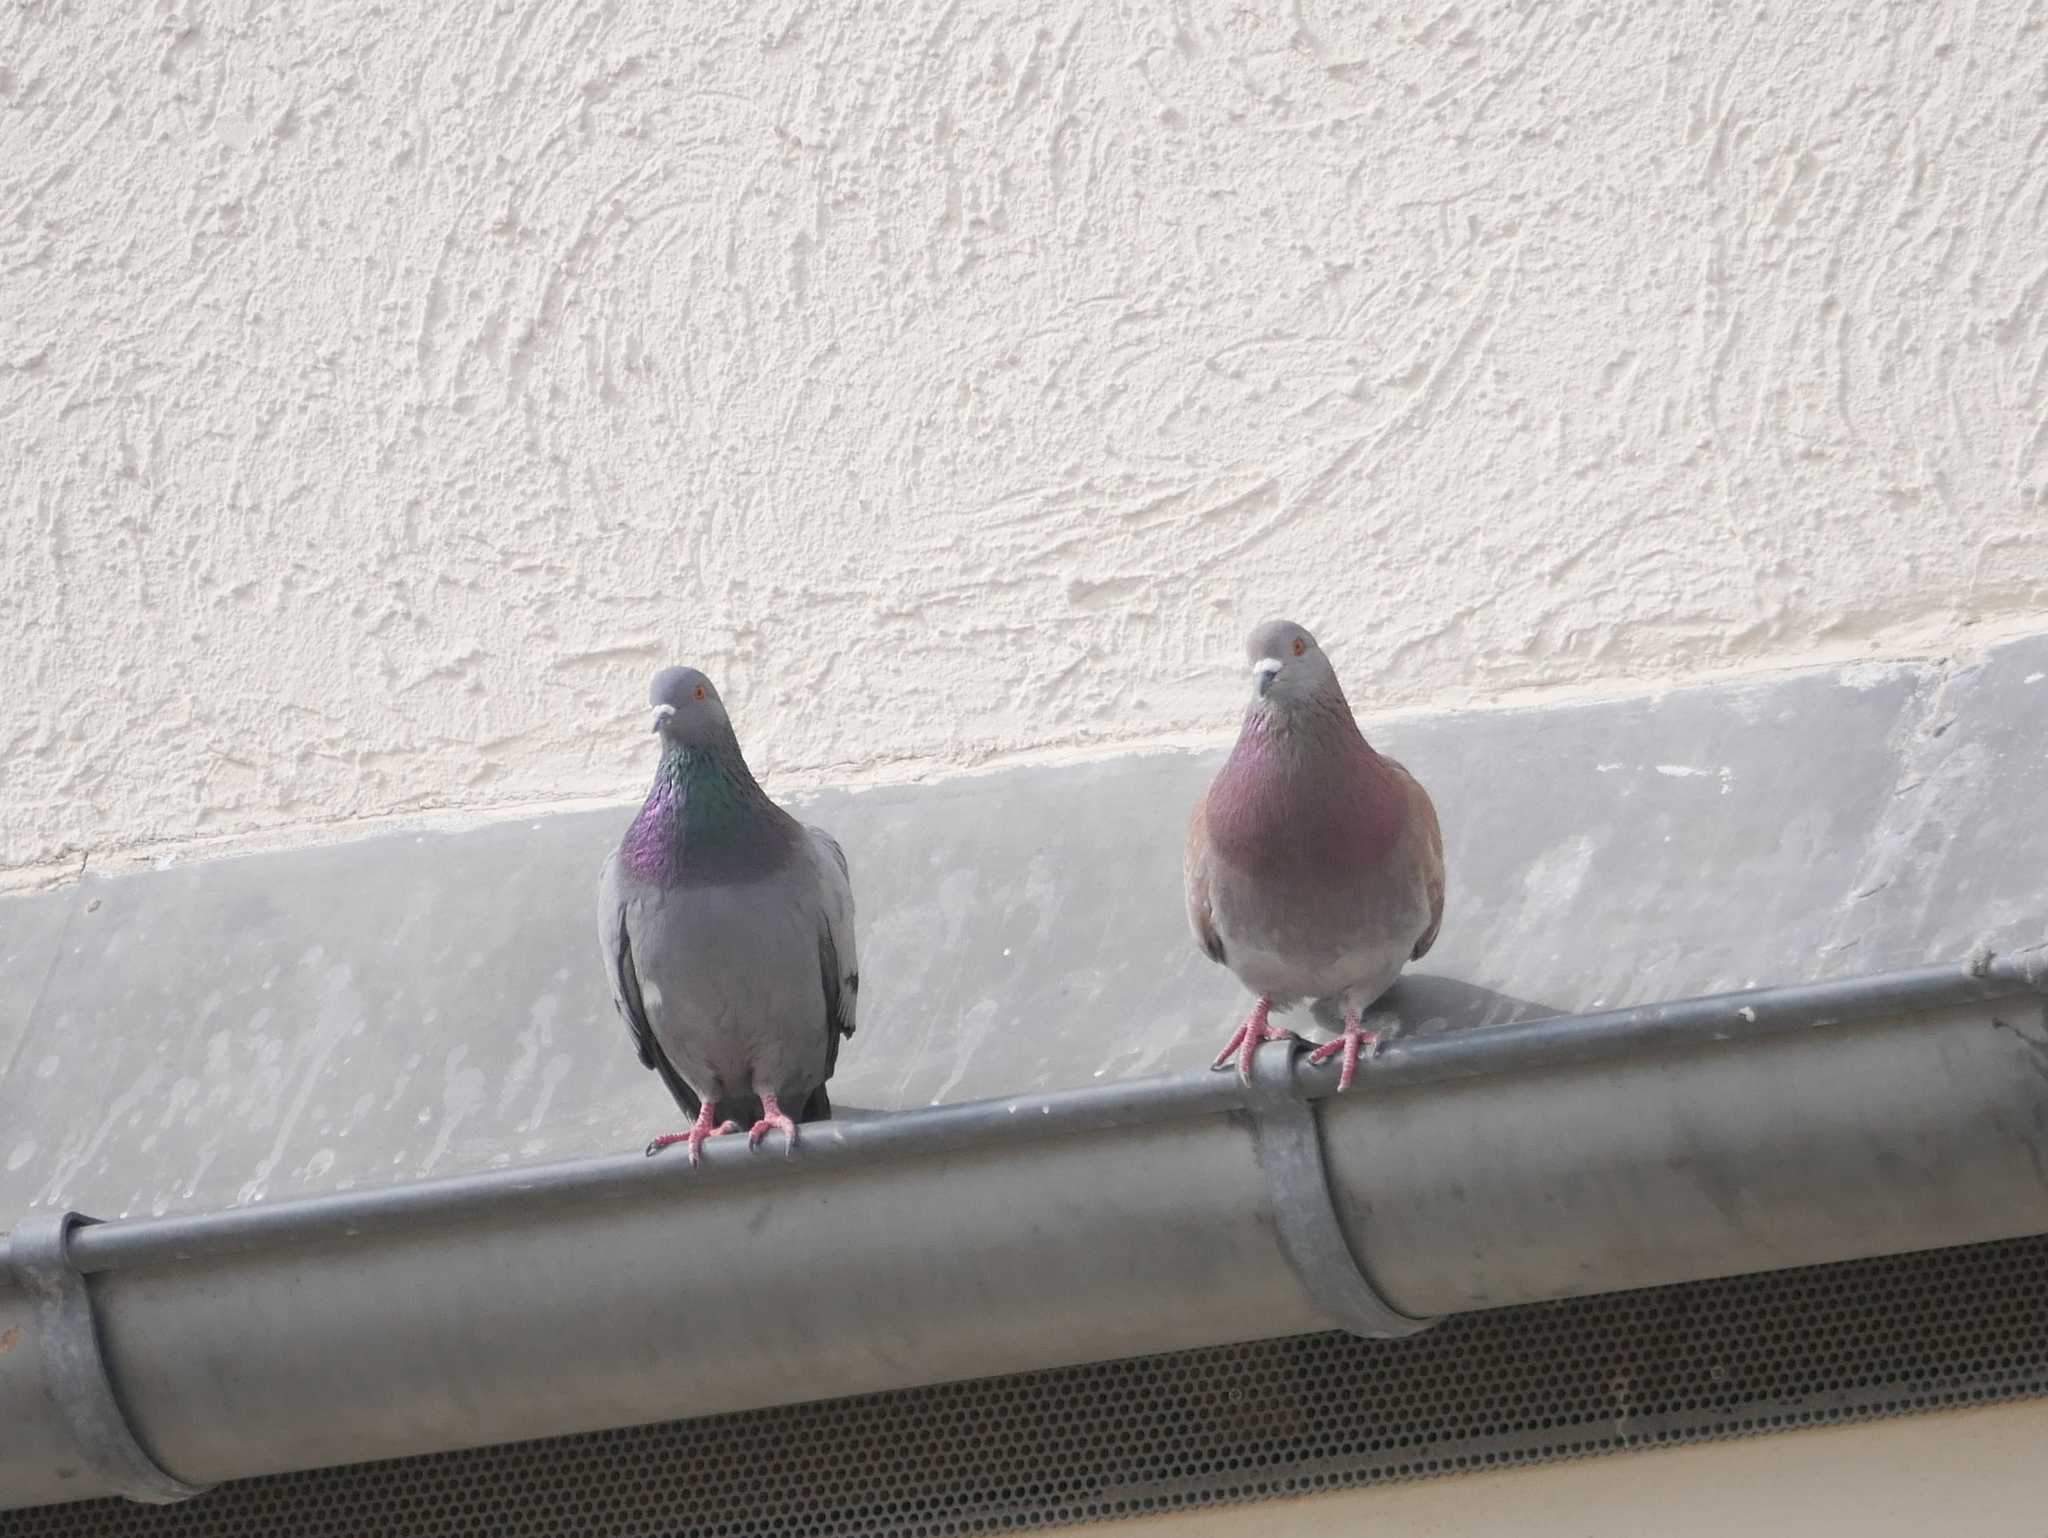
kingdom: Animalia
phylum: Chordata
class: Aves
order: Columbiformes
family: Columbidae
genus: Columba
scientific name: Columba livia
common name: Rock pigeon
